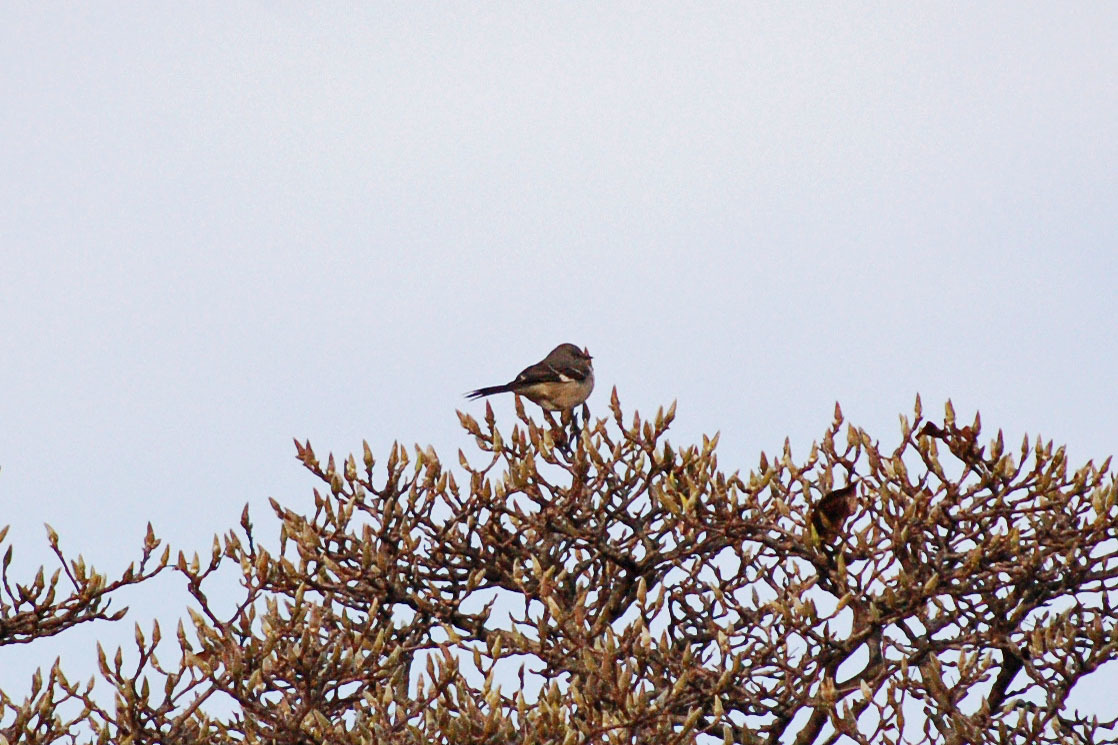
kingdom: Animalia
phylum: Chordata
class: Aves
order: Passeriformes
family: Mimidae
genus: Mimus
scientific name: Mimus polyglottos
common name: Northern mockingbird
